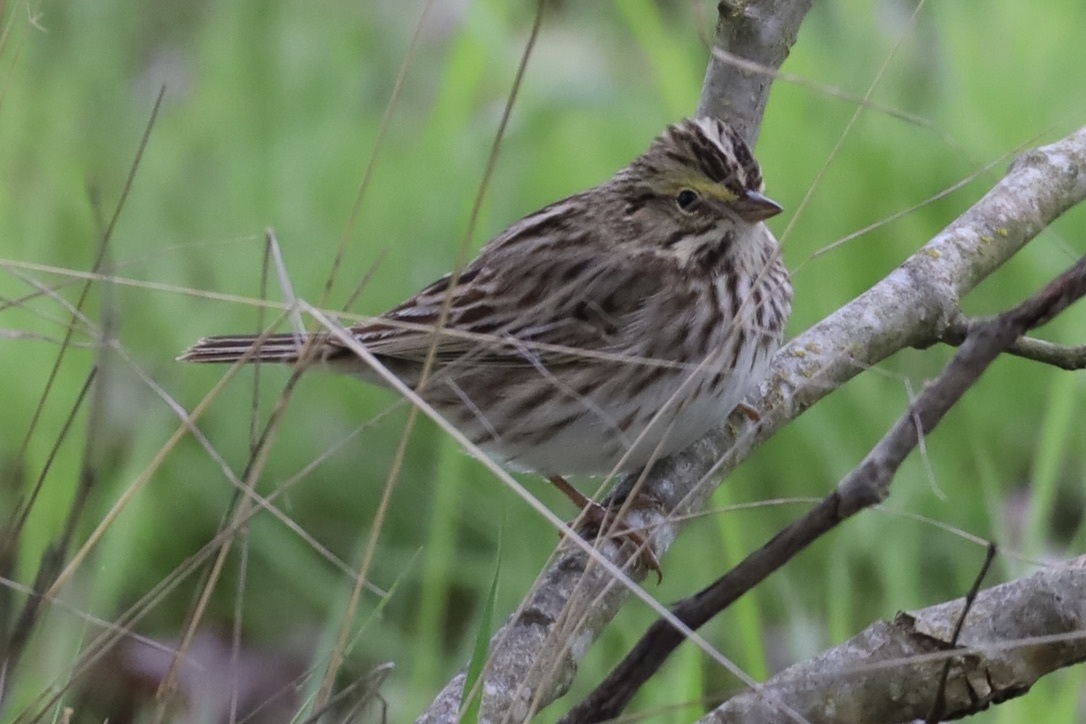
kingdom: Animalia
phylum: Chordata
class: Aves
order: Passeriformes
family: Passerellidae
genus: Passerculus
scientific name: Passerculus sandwichensis
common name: Savannah sparrow
